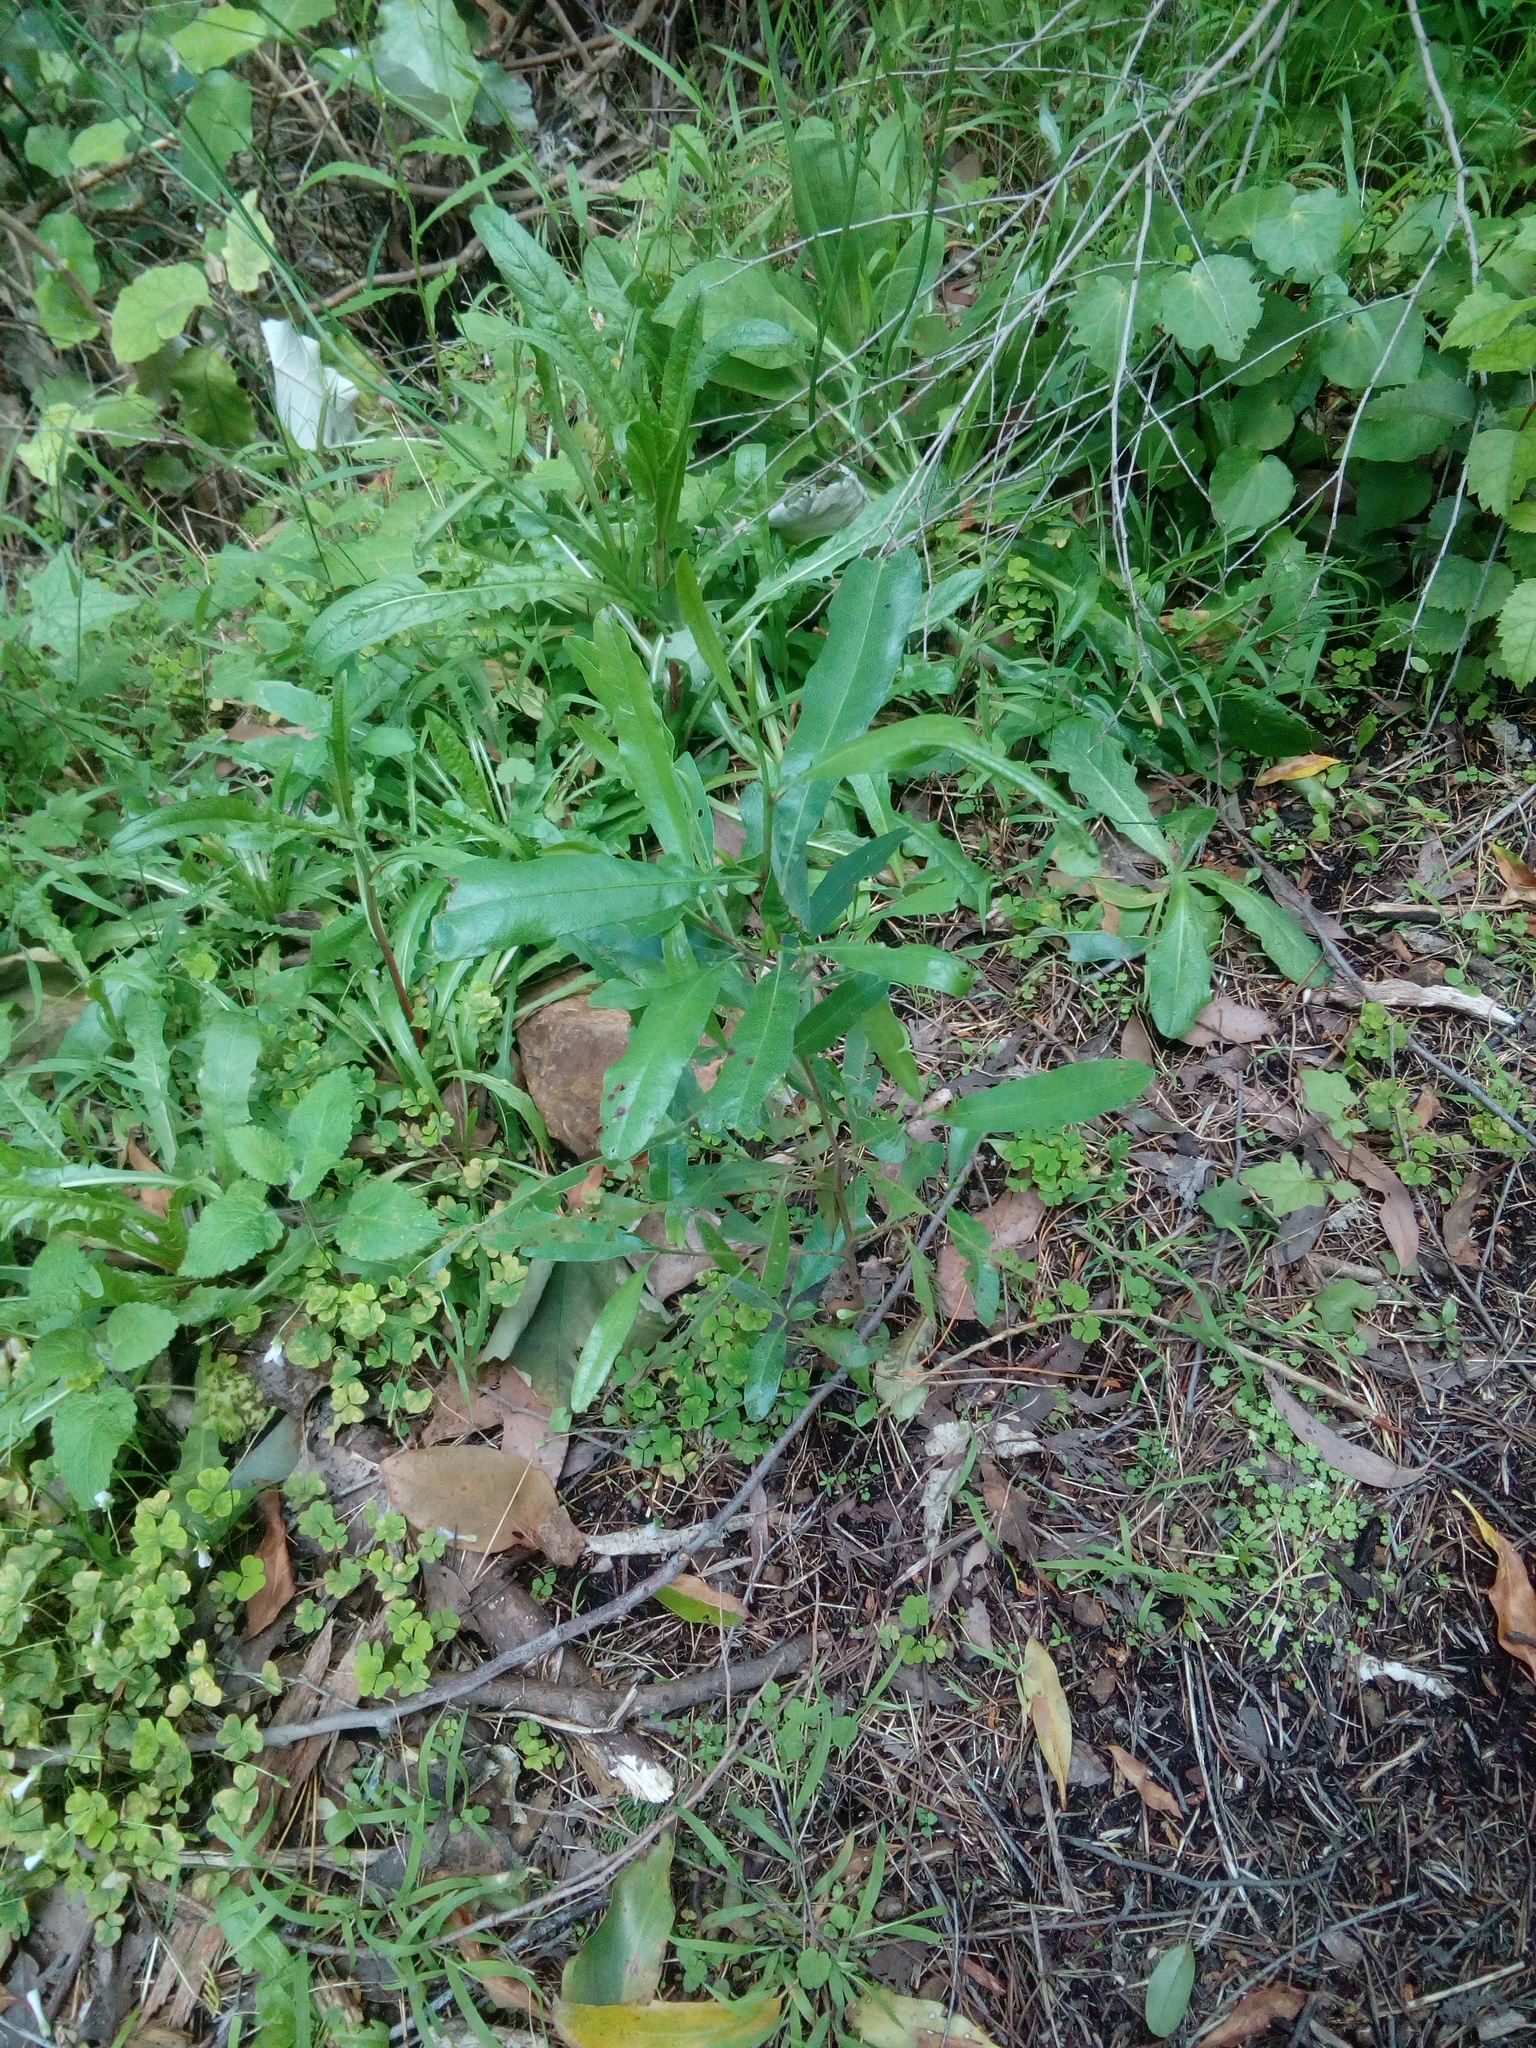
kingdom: Plantae
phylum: Tracheophyta
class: Magnoliopsida
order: Sapindales
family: Sapindaceae
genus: Dodonaea
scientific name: Dodonaea viscosa
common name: Hopbush
